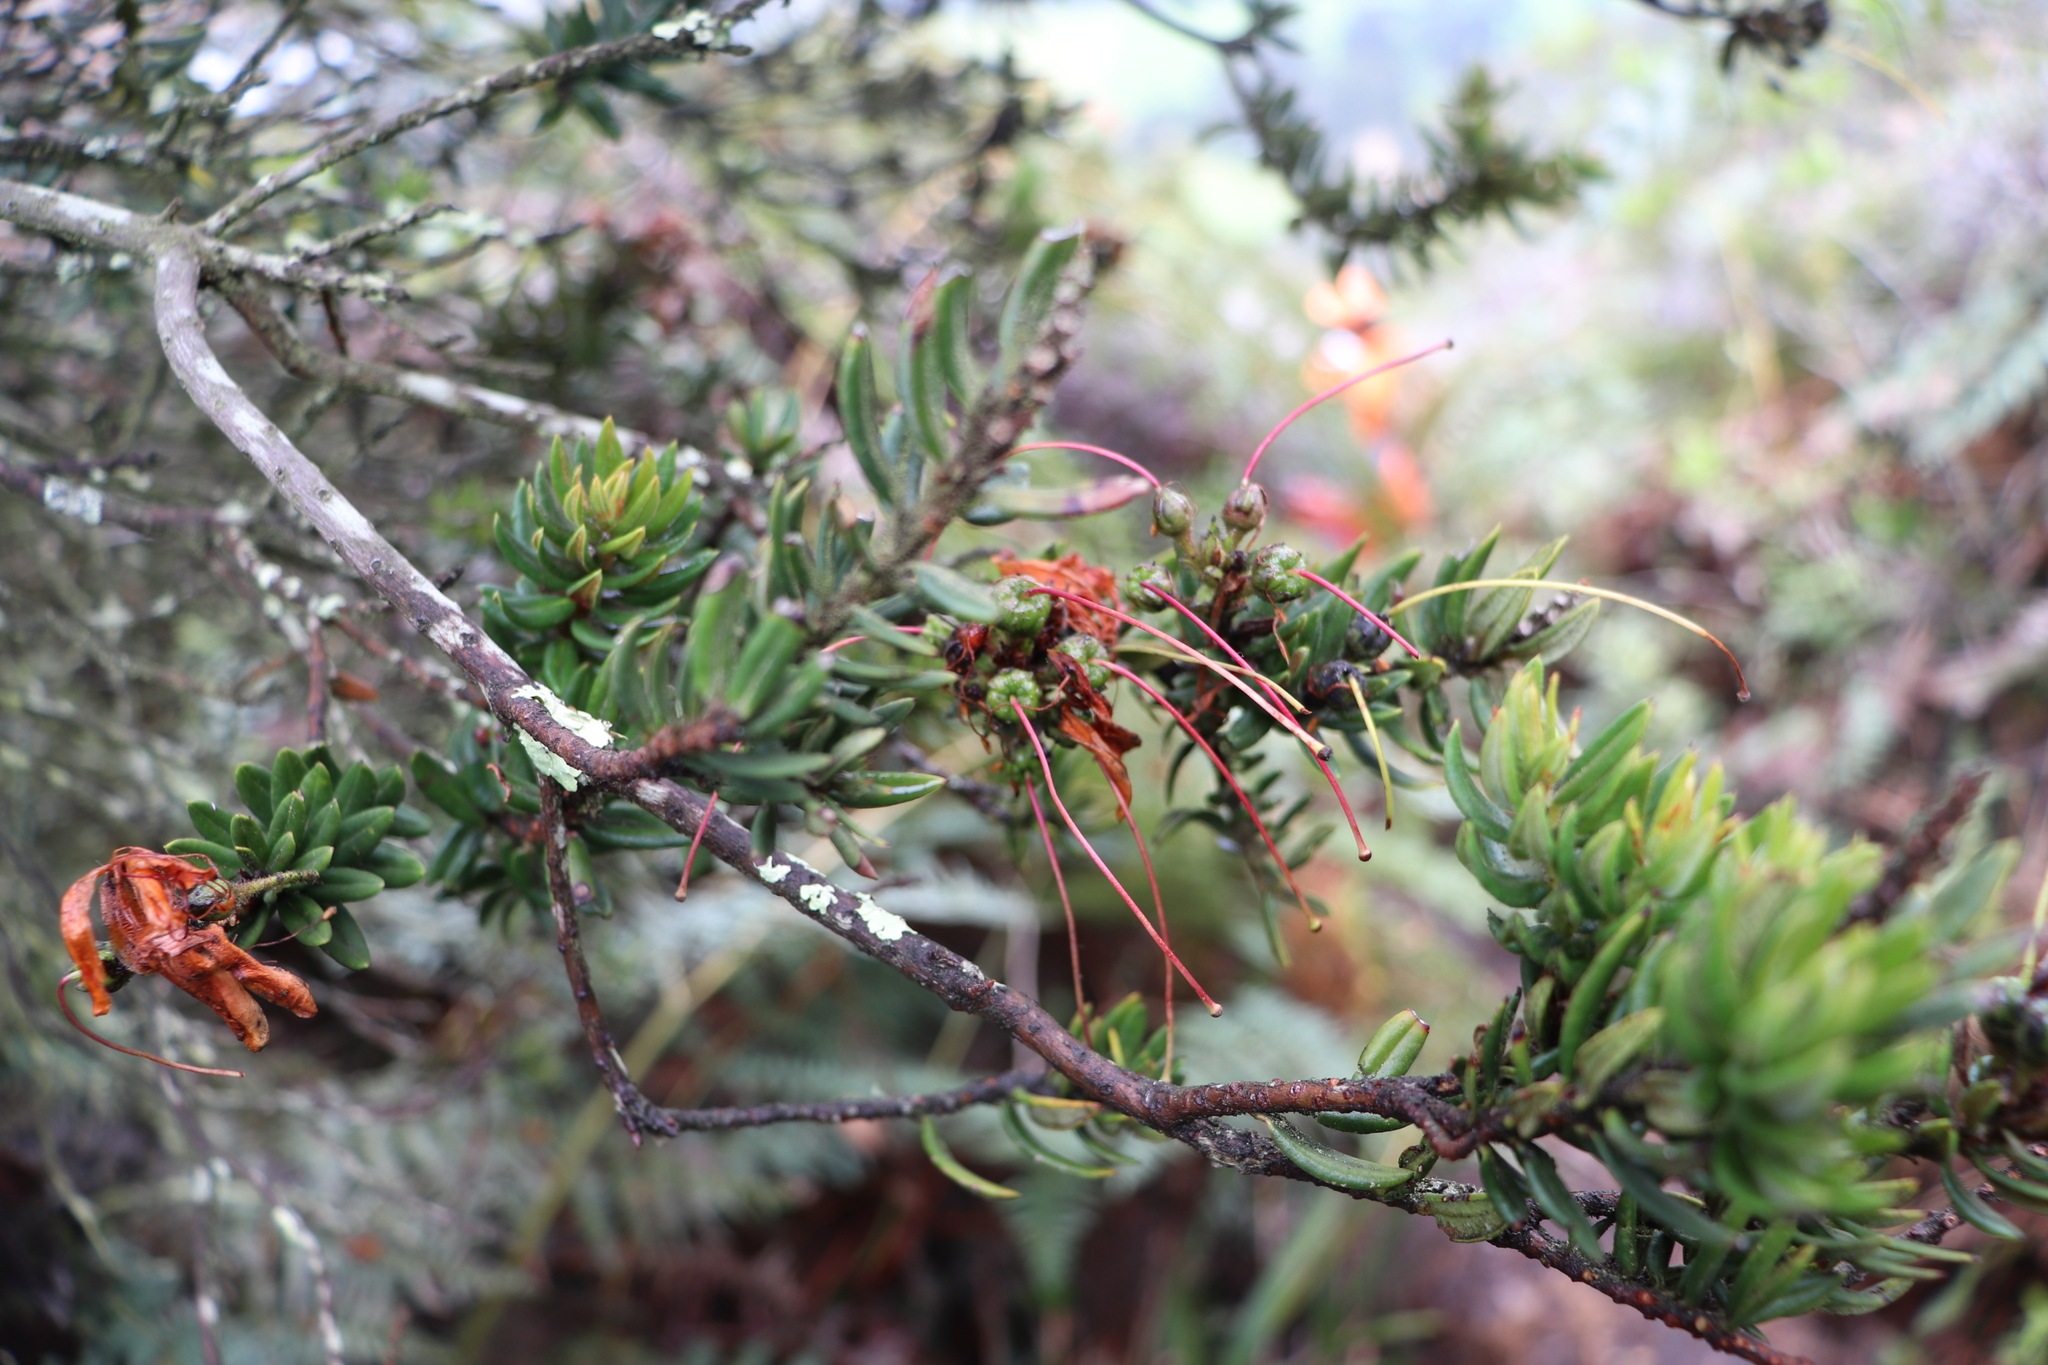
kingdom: Plantae
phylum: Tracheophyta
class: Magnoliopsida
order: Ericales
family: Ericaceae
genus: Bejaria
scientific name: Bejaria resinosa
